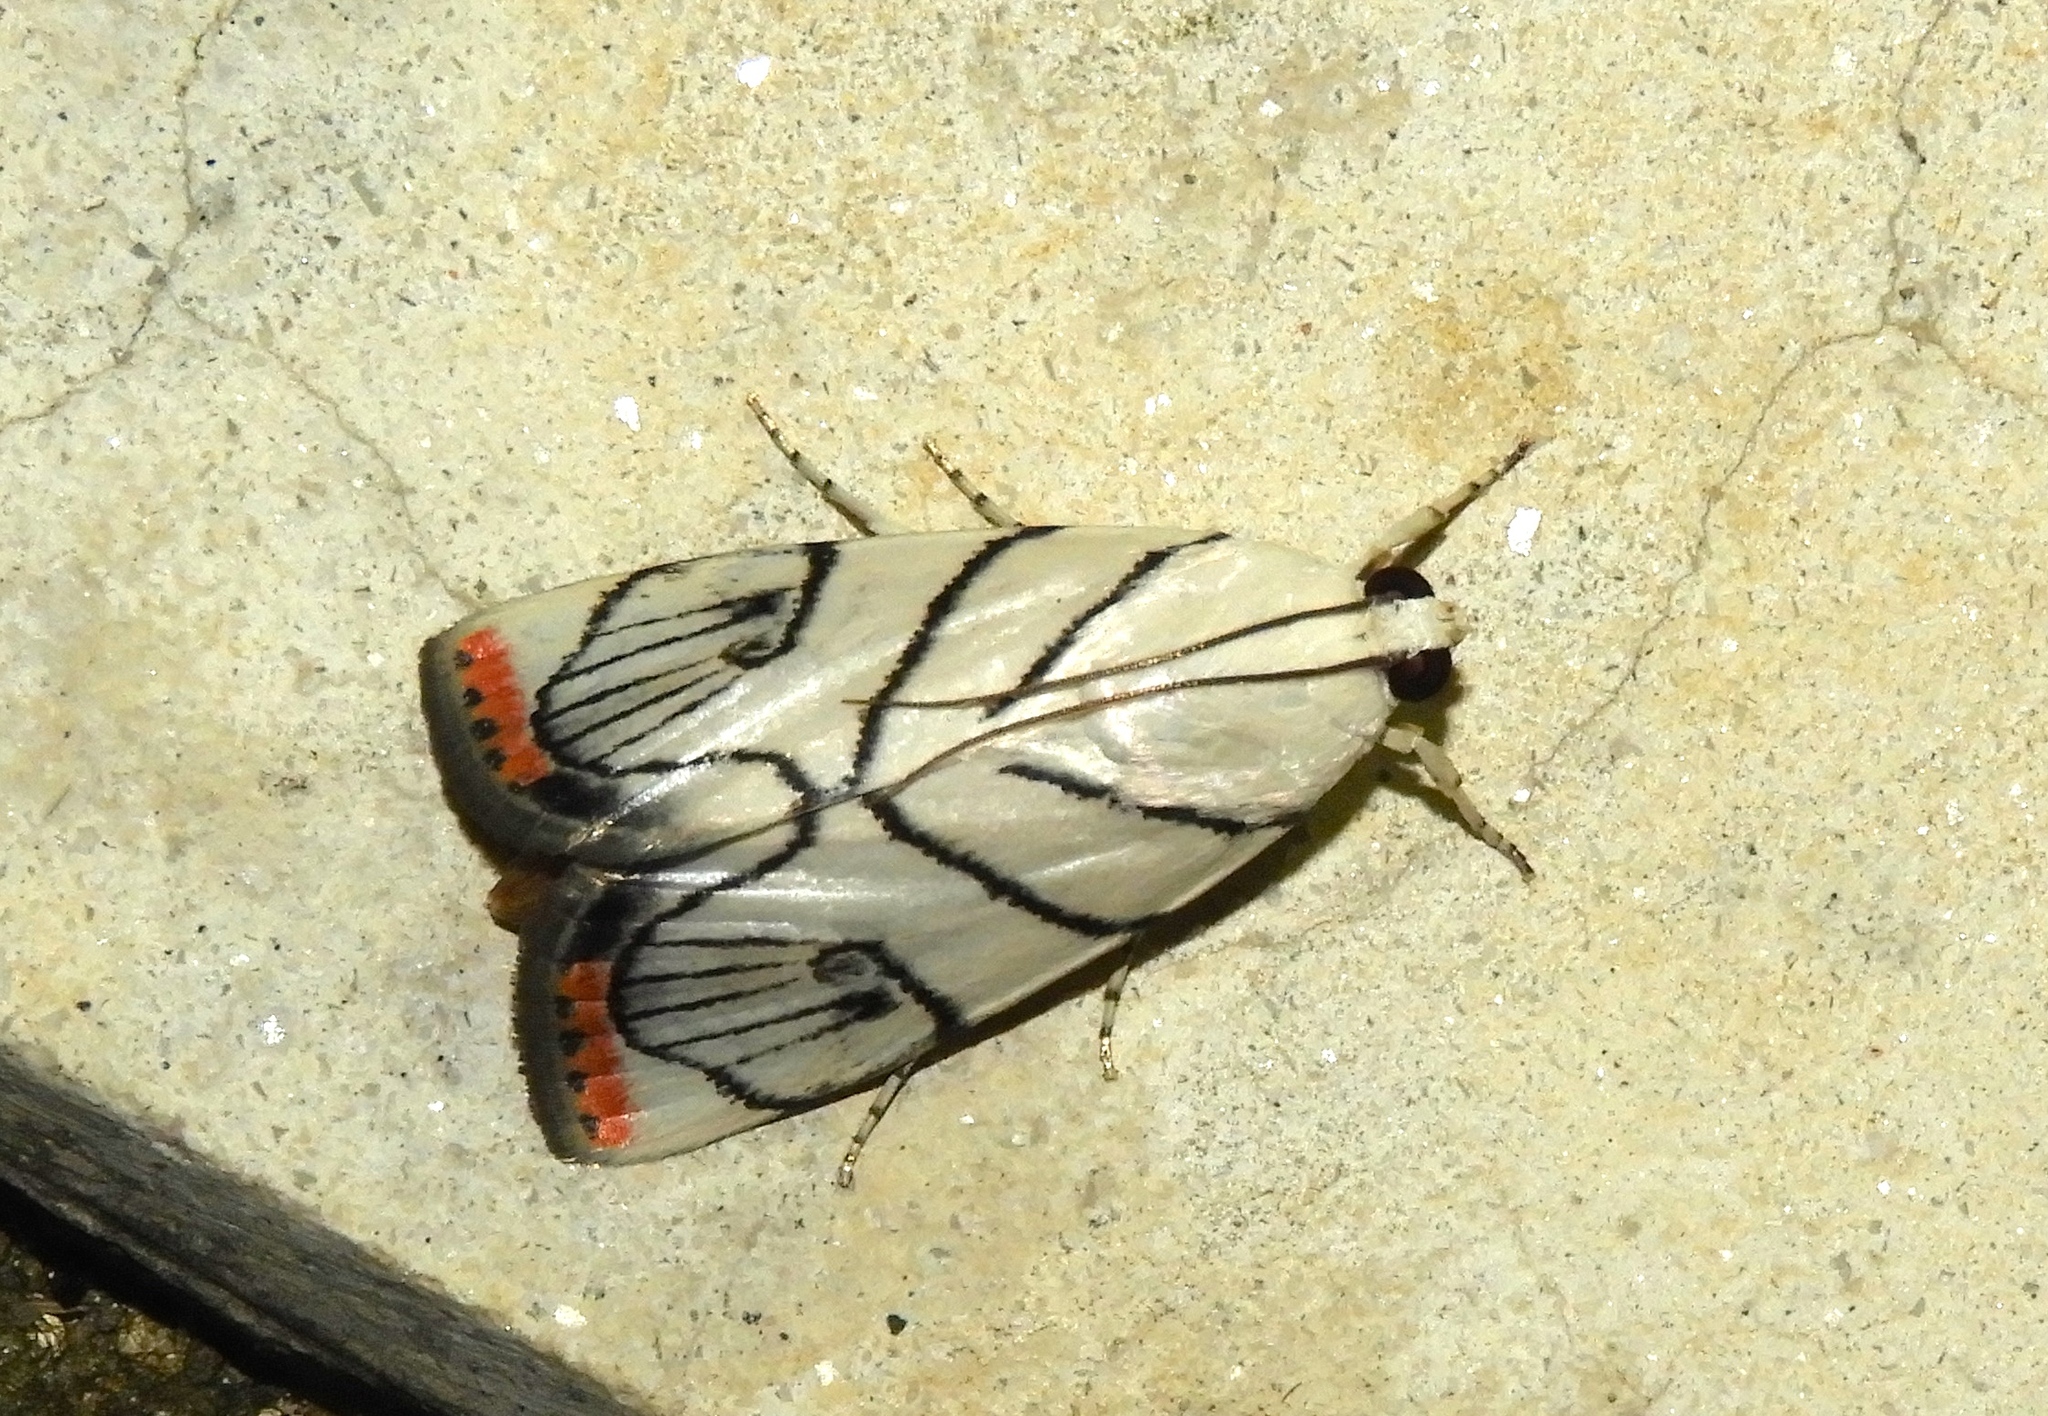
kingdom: Animalia
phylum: Arthropoda
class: Insecta
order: Lepidoptera
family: Crambidae
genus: Dichogama
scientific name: Dichogama gudmanni
